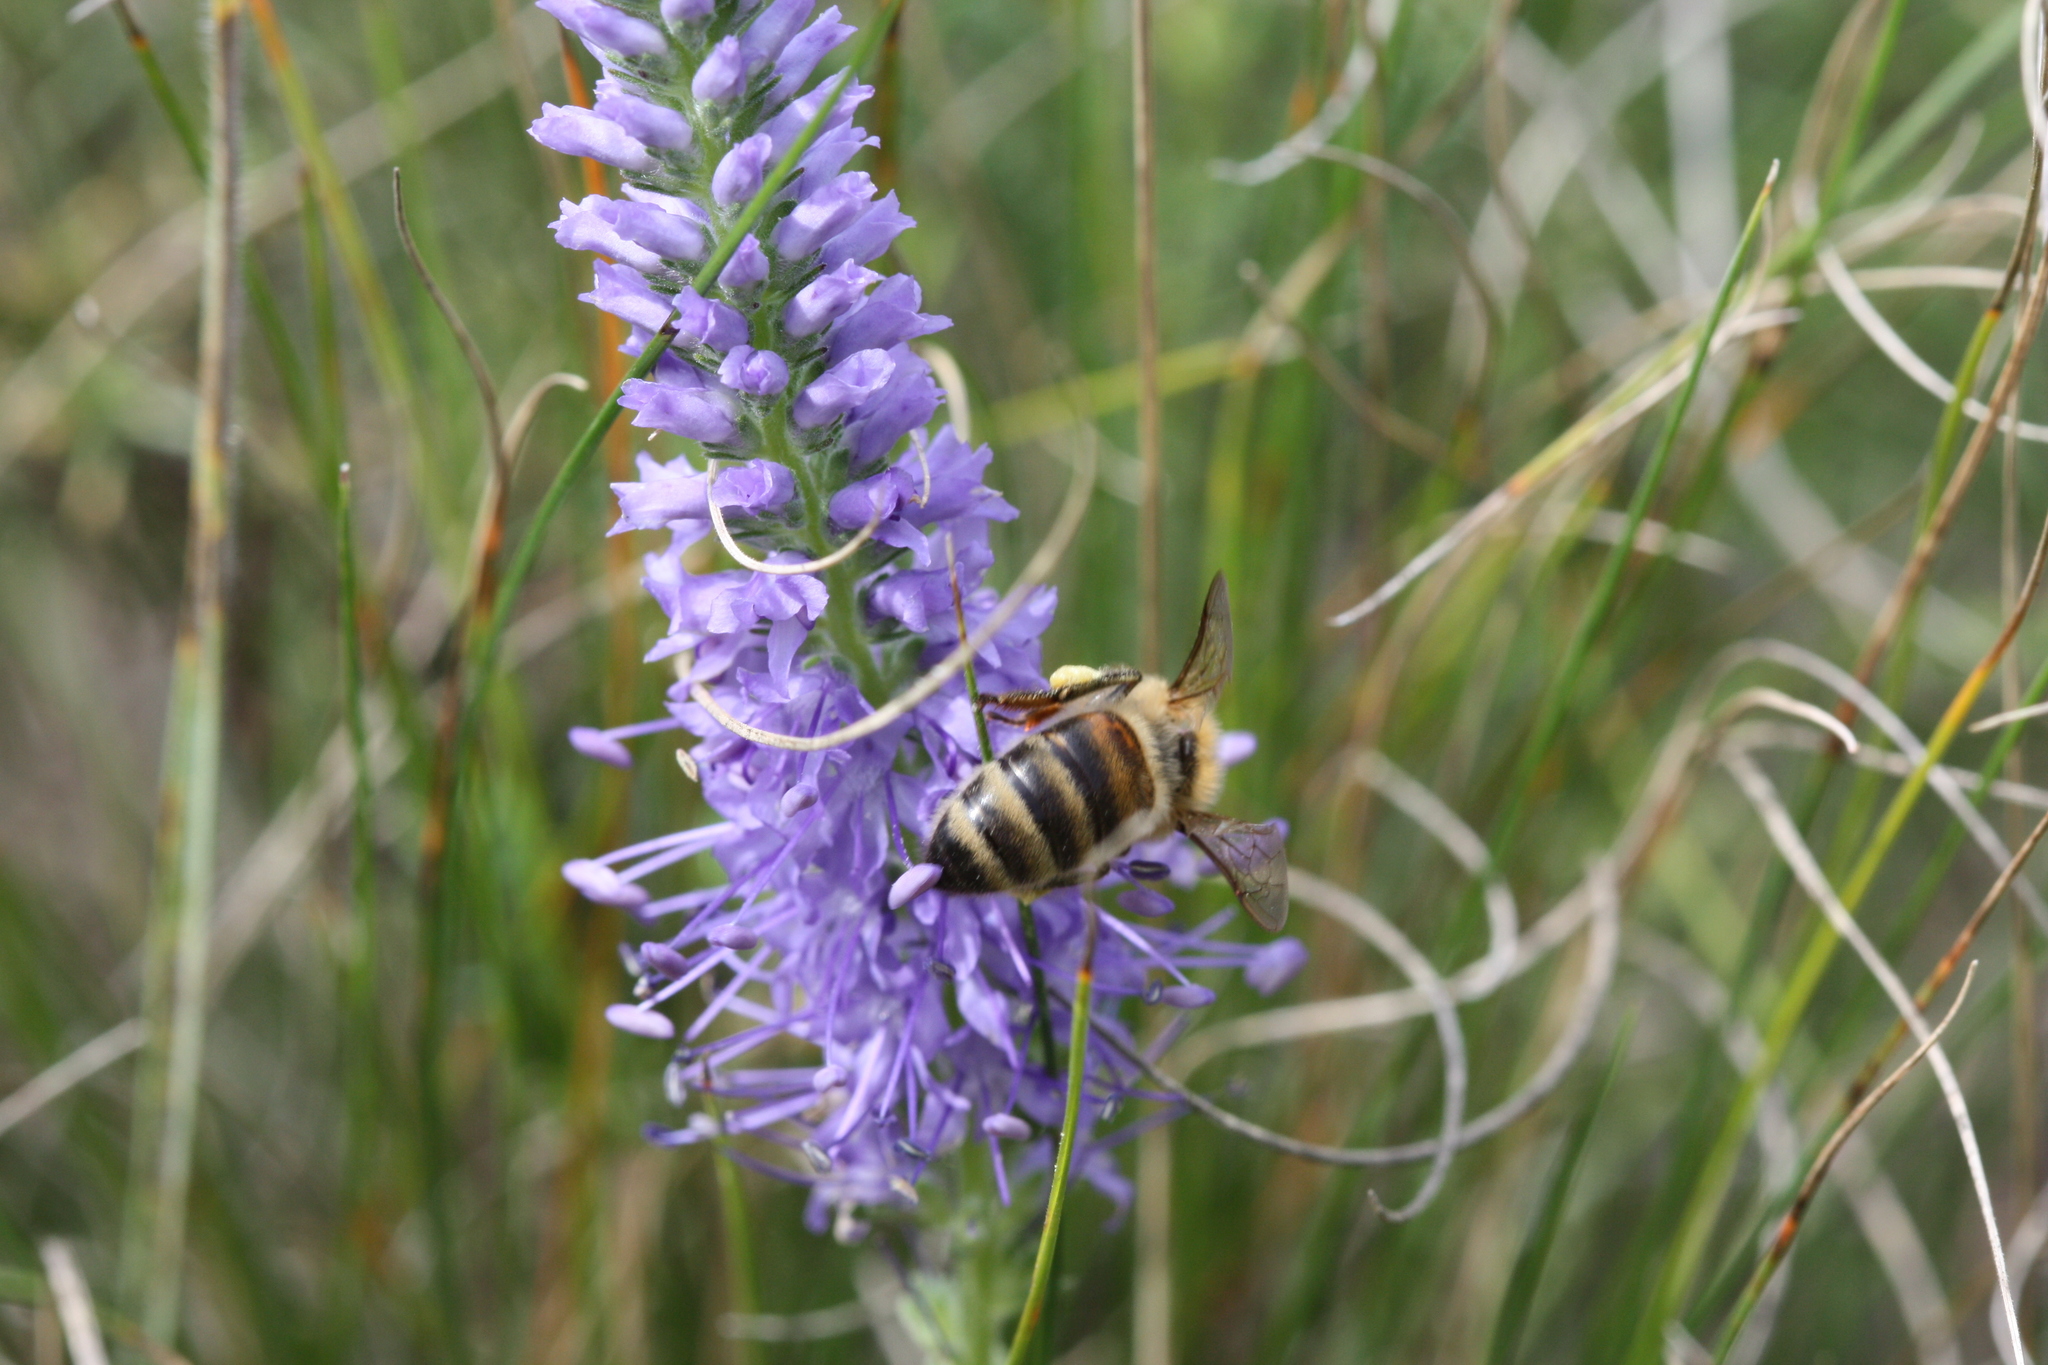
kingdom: Animalia
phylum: Arthropoda
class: Insecta
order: Hymenoptera
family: Apidae
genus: Apis
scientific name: Apis mellifera
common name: Honey bee
